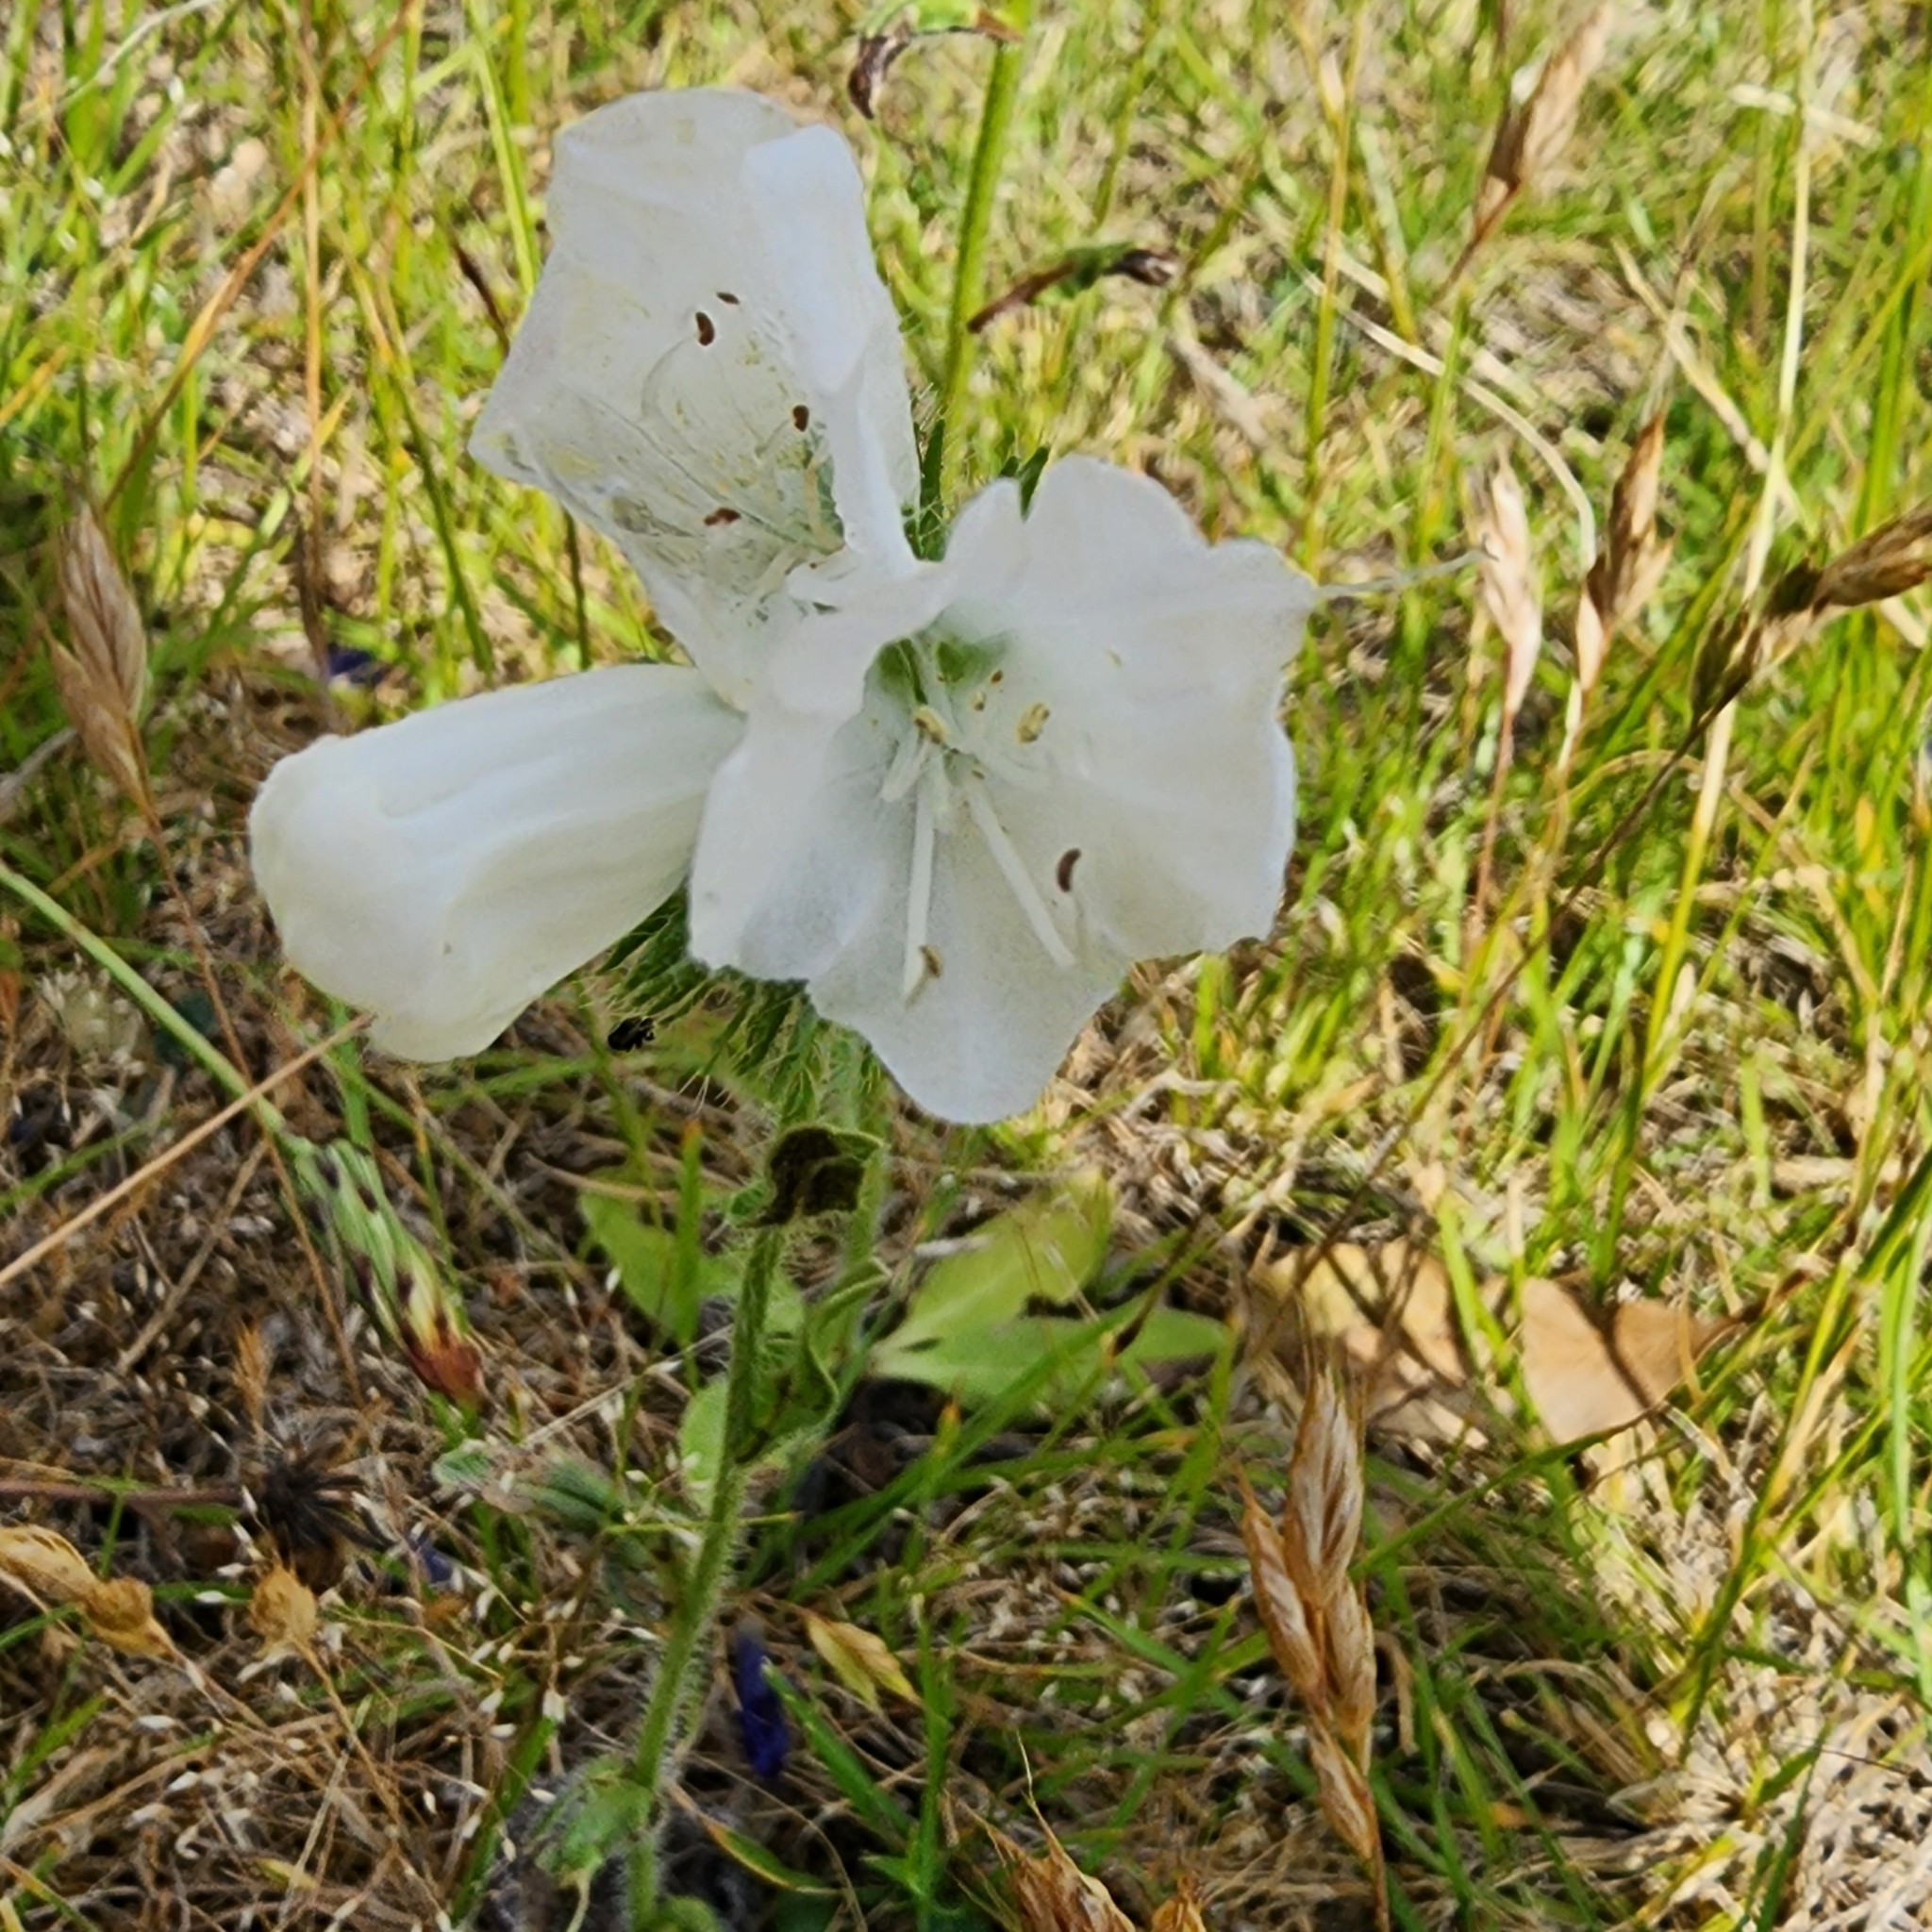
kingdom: Plantae
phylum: Tracheophyta
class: Magnoliopsida
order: Boraginales
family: Boraginaceae
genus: Echium
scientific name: Echium plantagineum
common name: Purple viper's-bugloss
